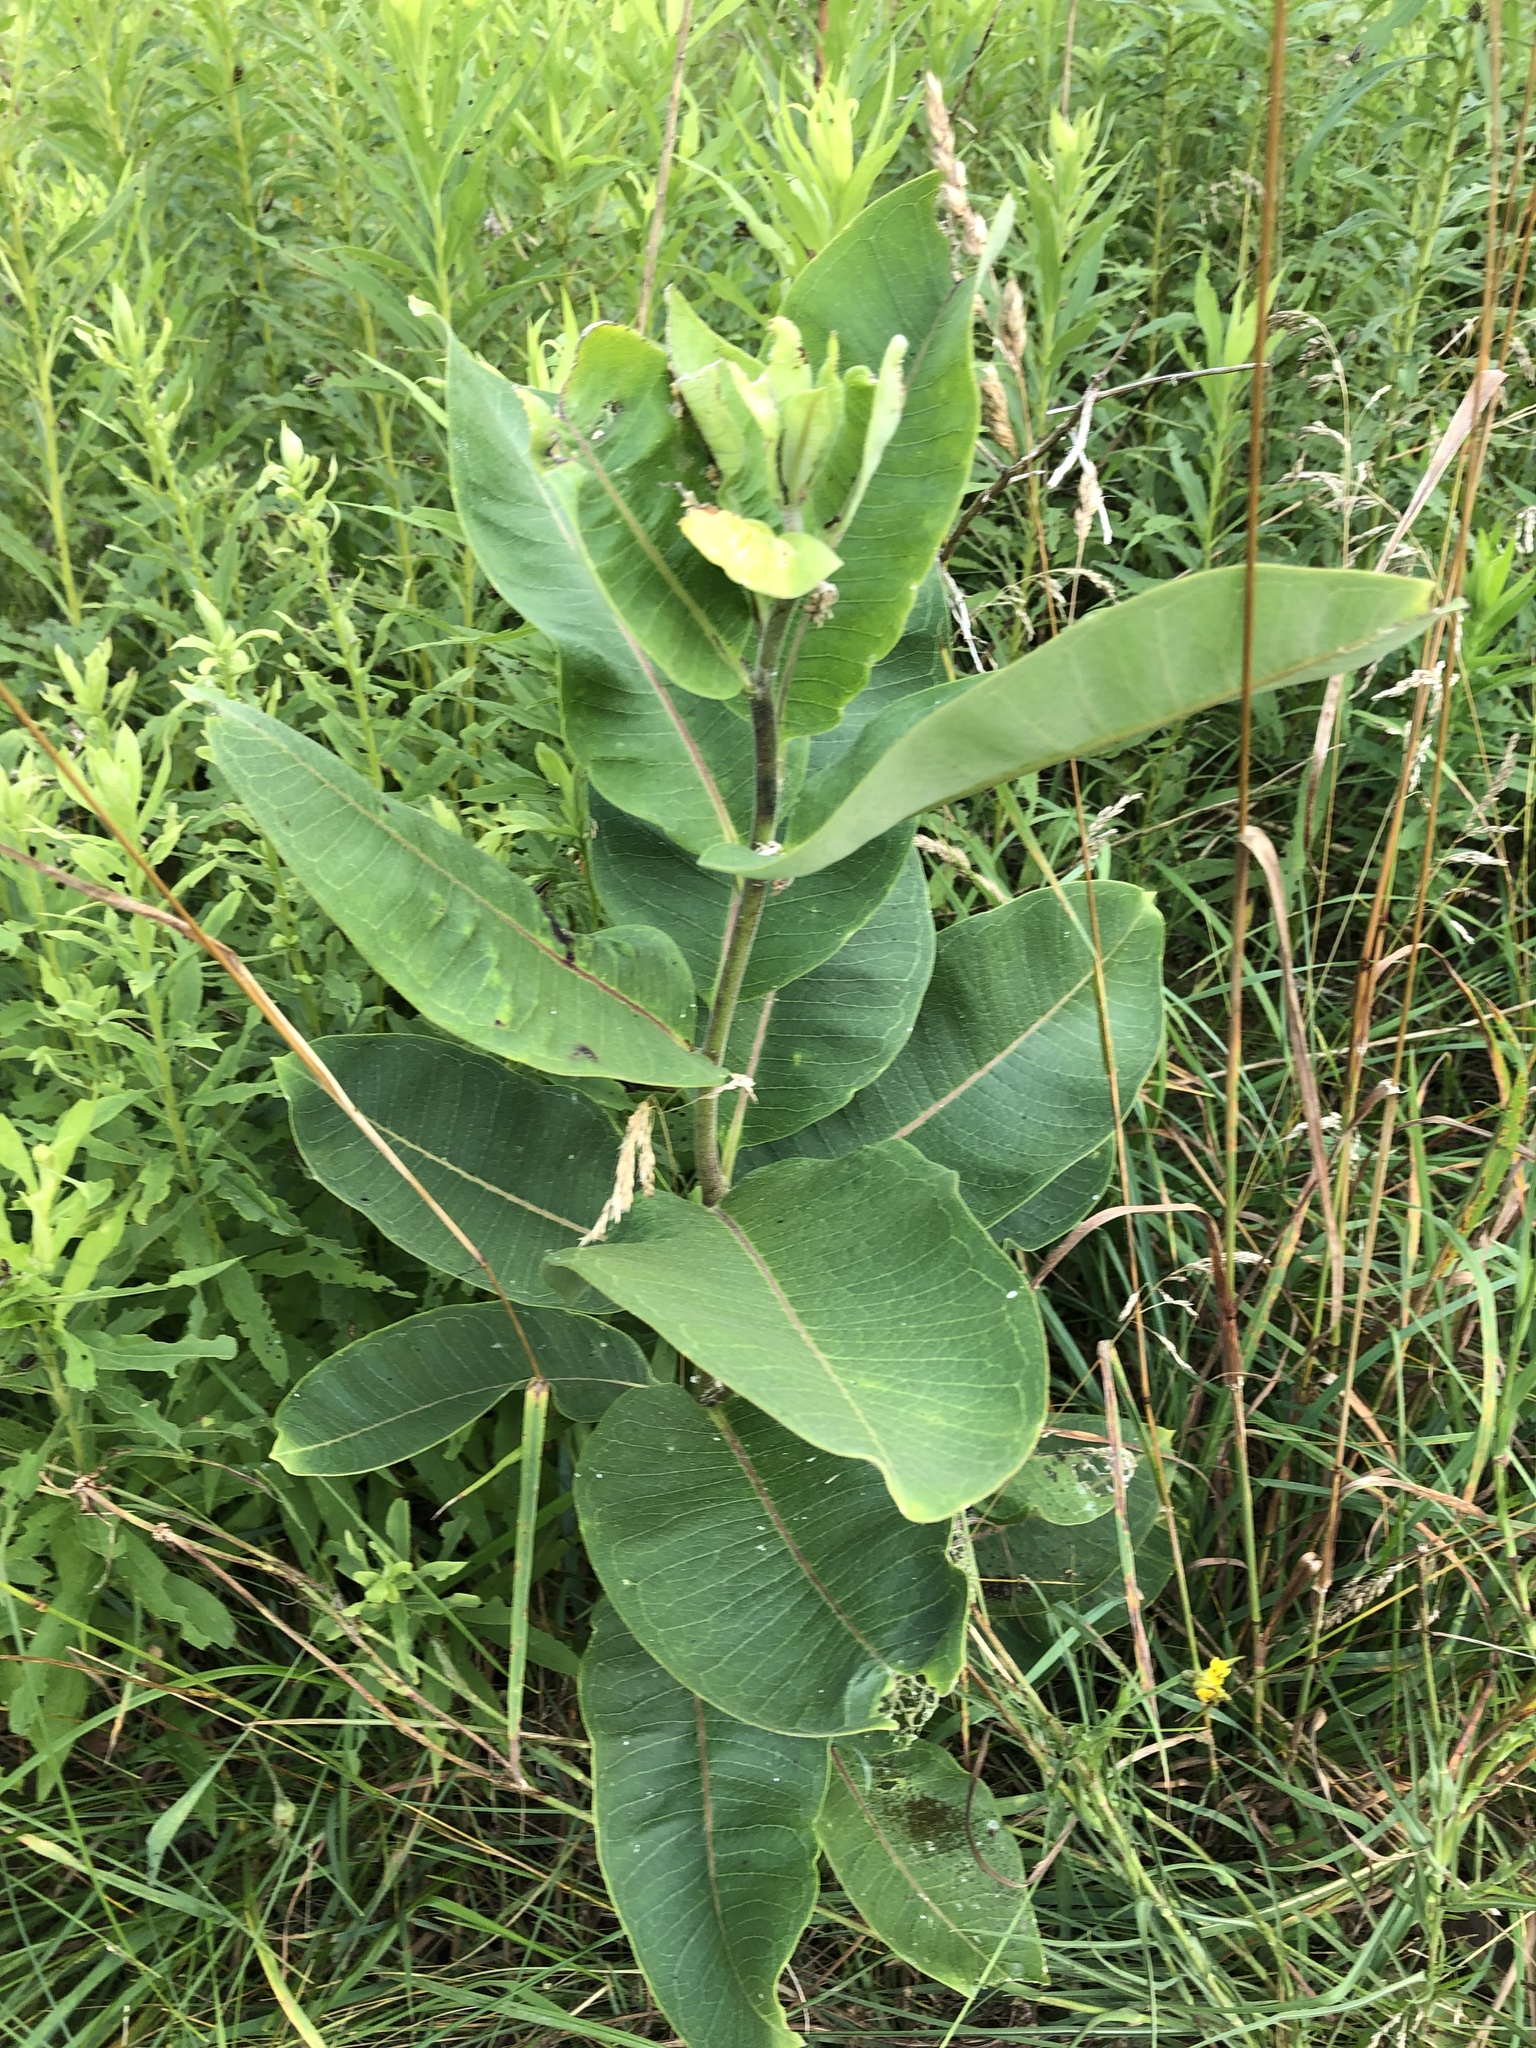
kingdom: Plantae
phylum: Tracheophyta
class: Magnoliopsida
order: Gentianales
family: Apocynaceae
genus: Asclepias
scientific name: Asclepias syriaca
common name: Common milkweed
